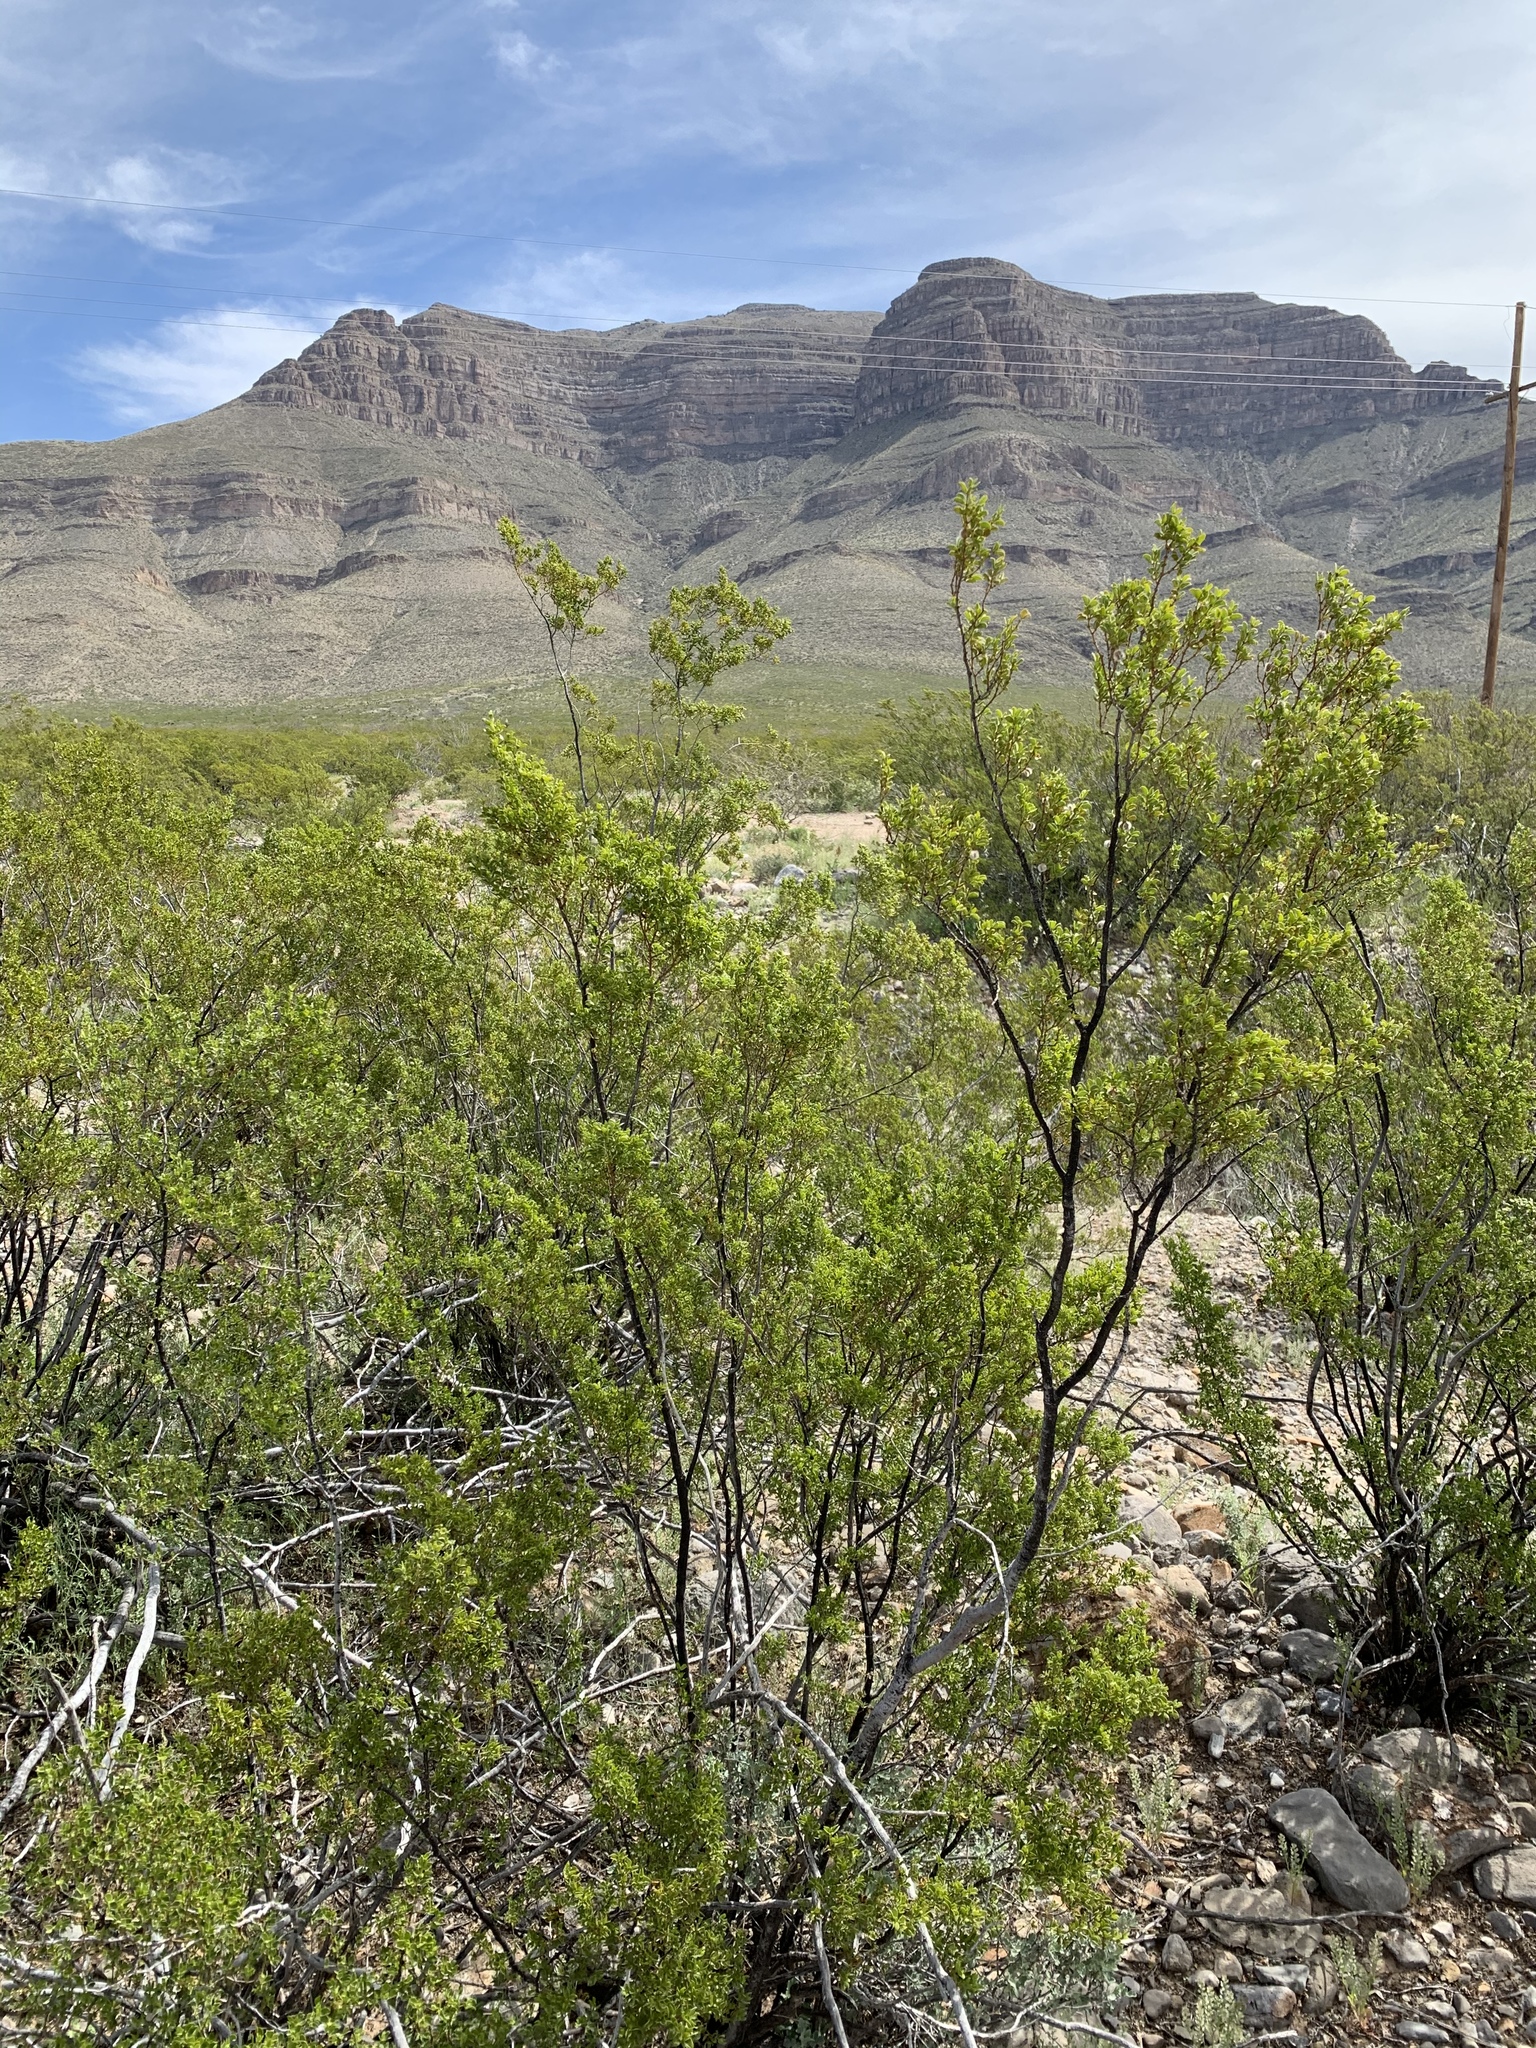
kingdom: Plantae
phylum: Tracheophyta
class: Magnoliopsida
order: Zygophyllales
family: Zygophyllaceae
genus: Larrea
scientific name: Larrea tridentata
